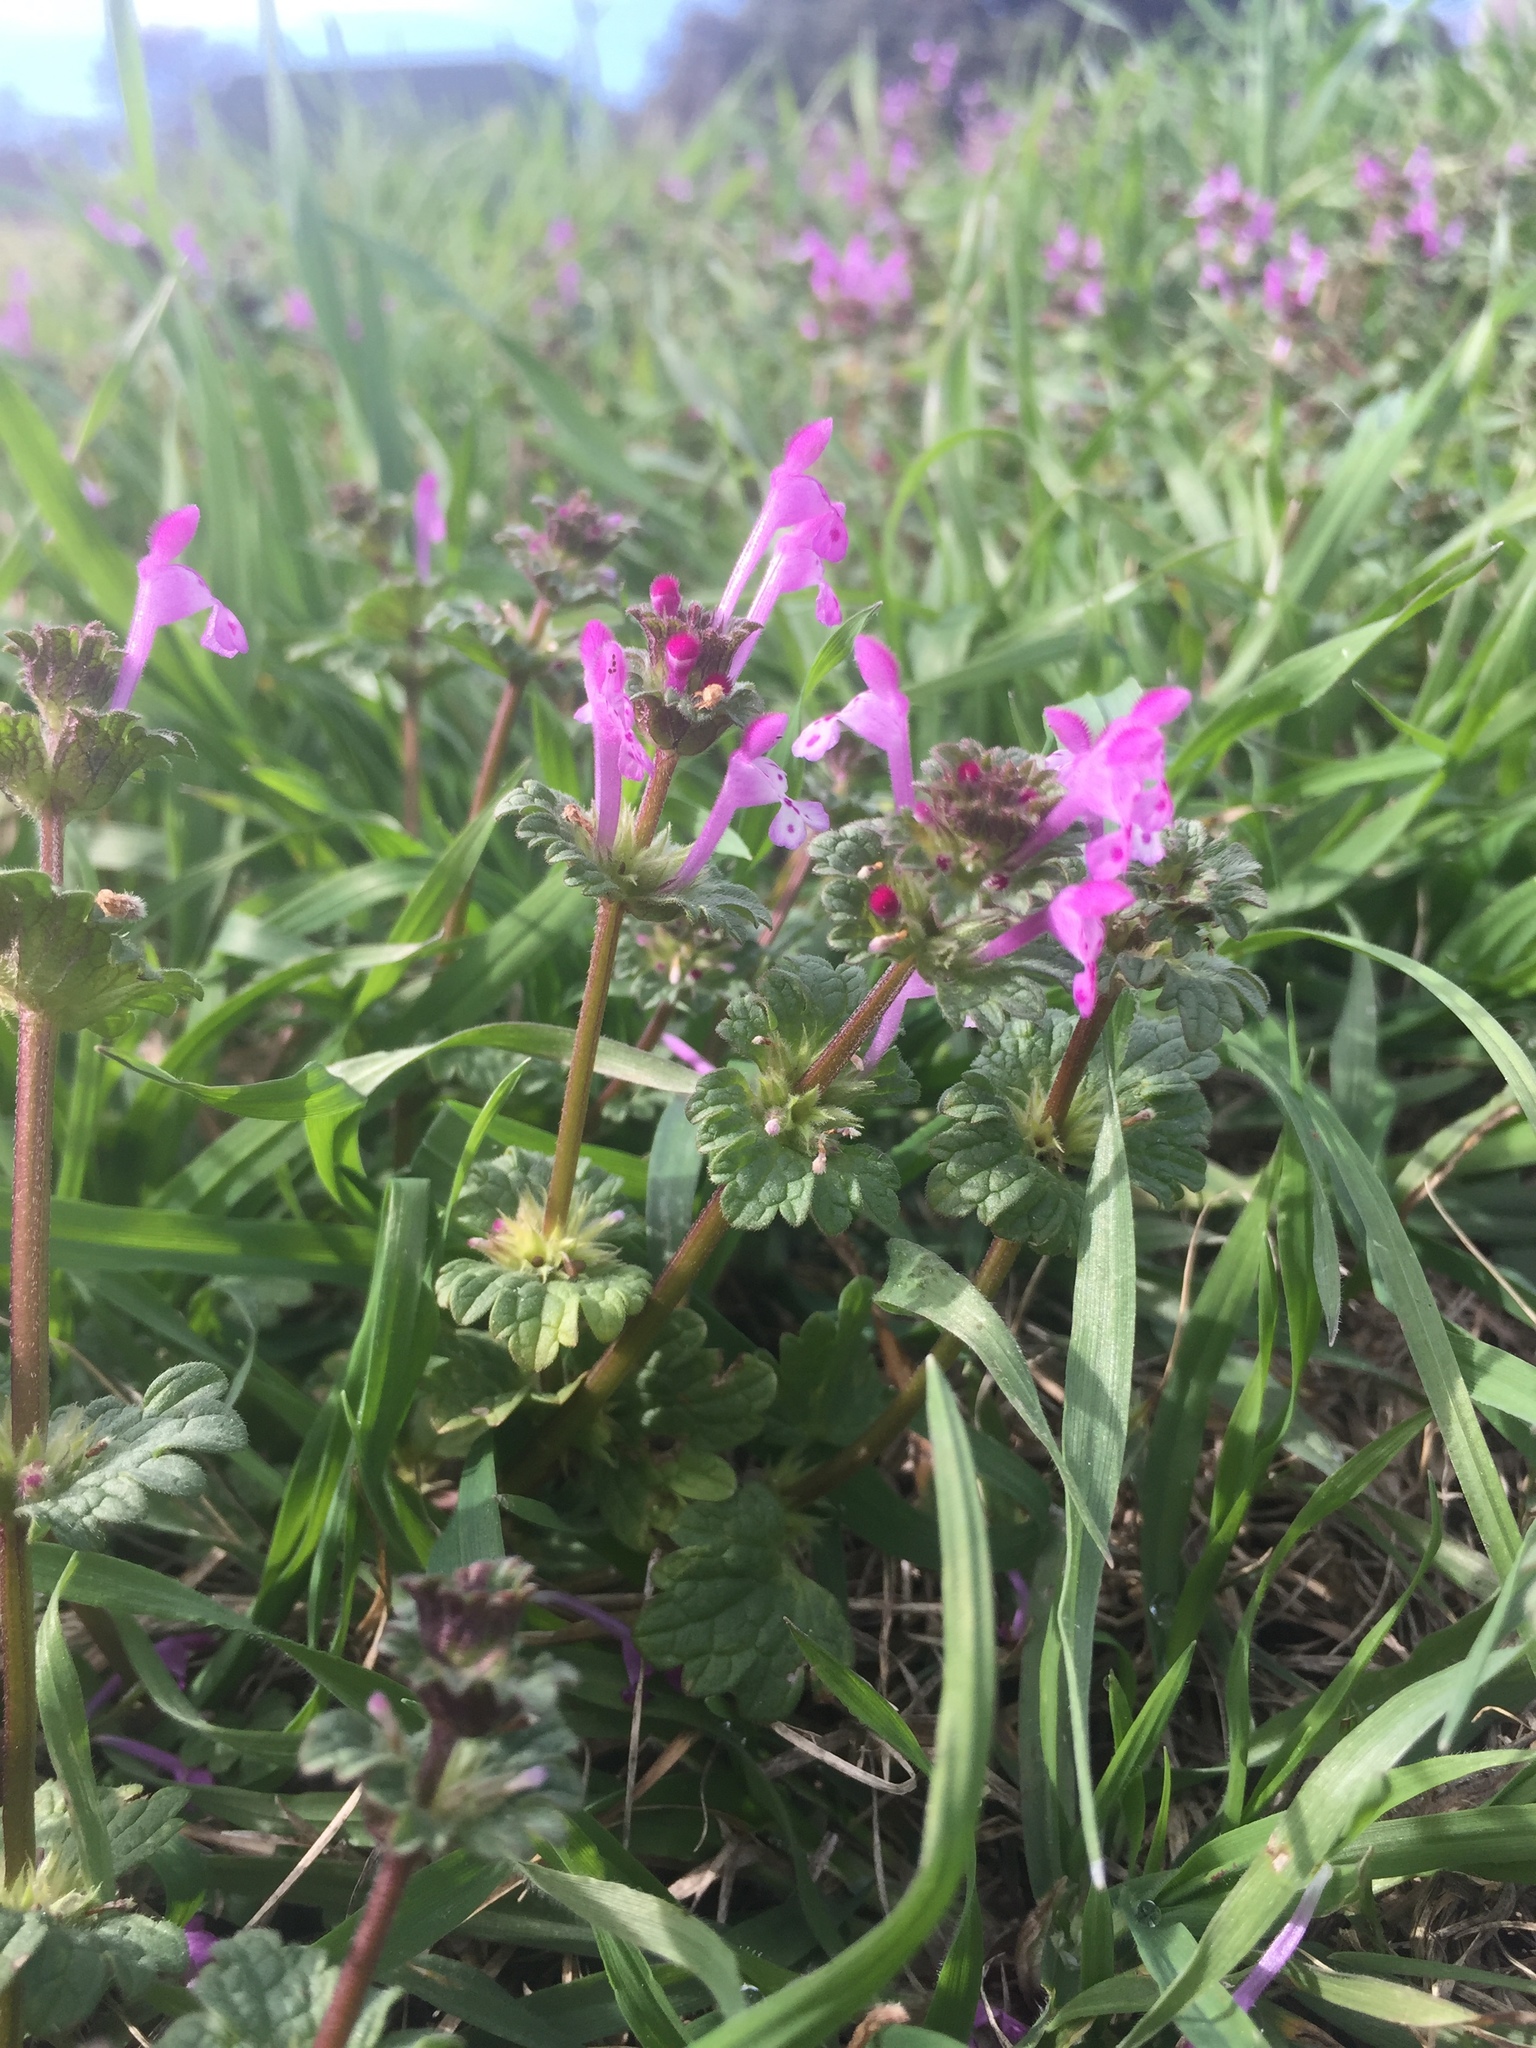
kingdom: Plantae
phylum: Tracheophyta
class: Magnoliopsida
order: Lamiales
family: Lamiaceae
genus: Lamium
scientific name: Lamium amplexicaule
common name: Henbit dead-nettle
